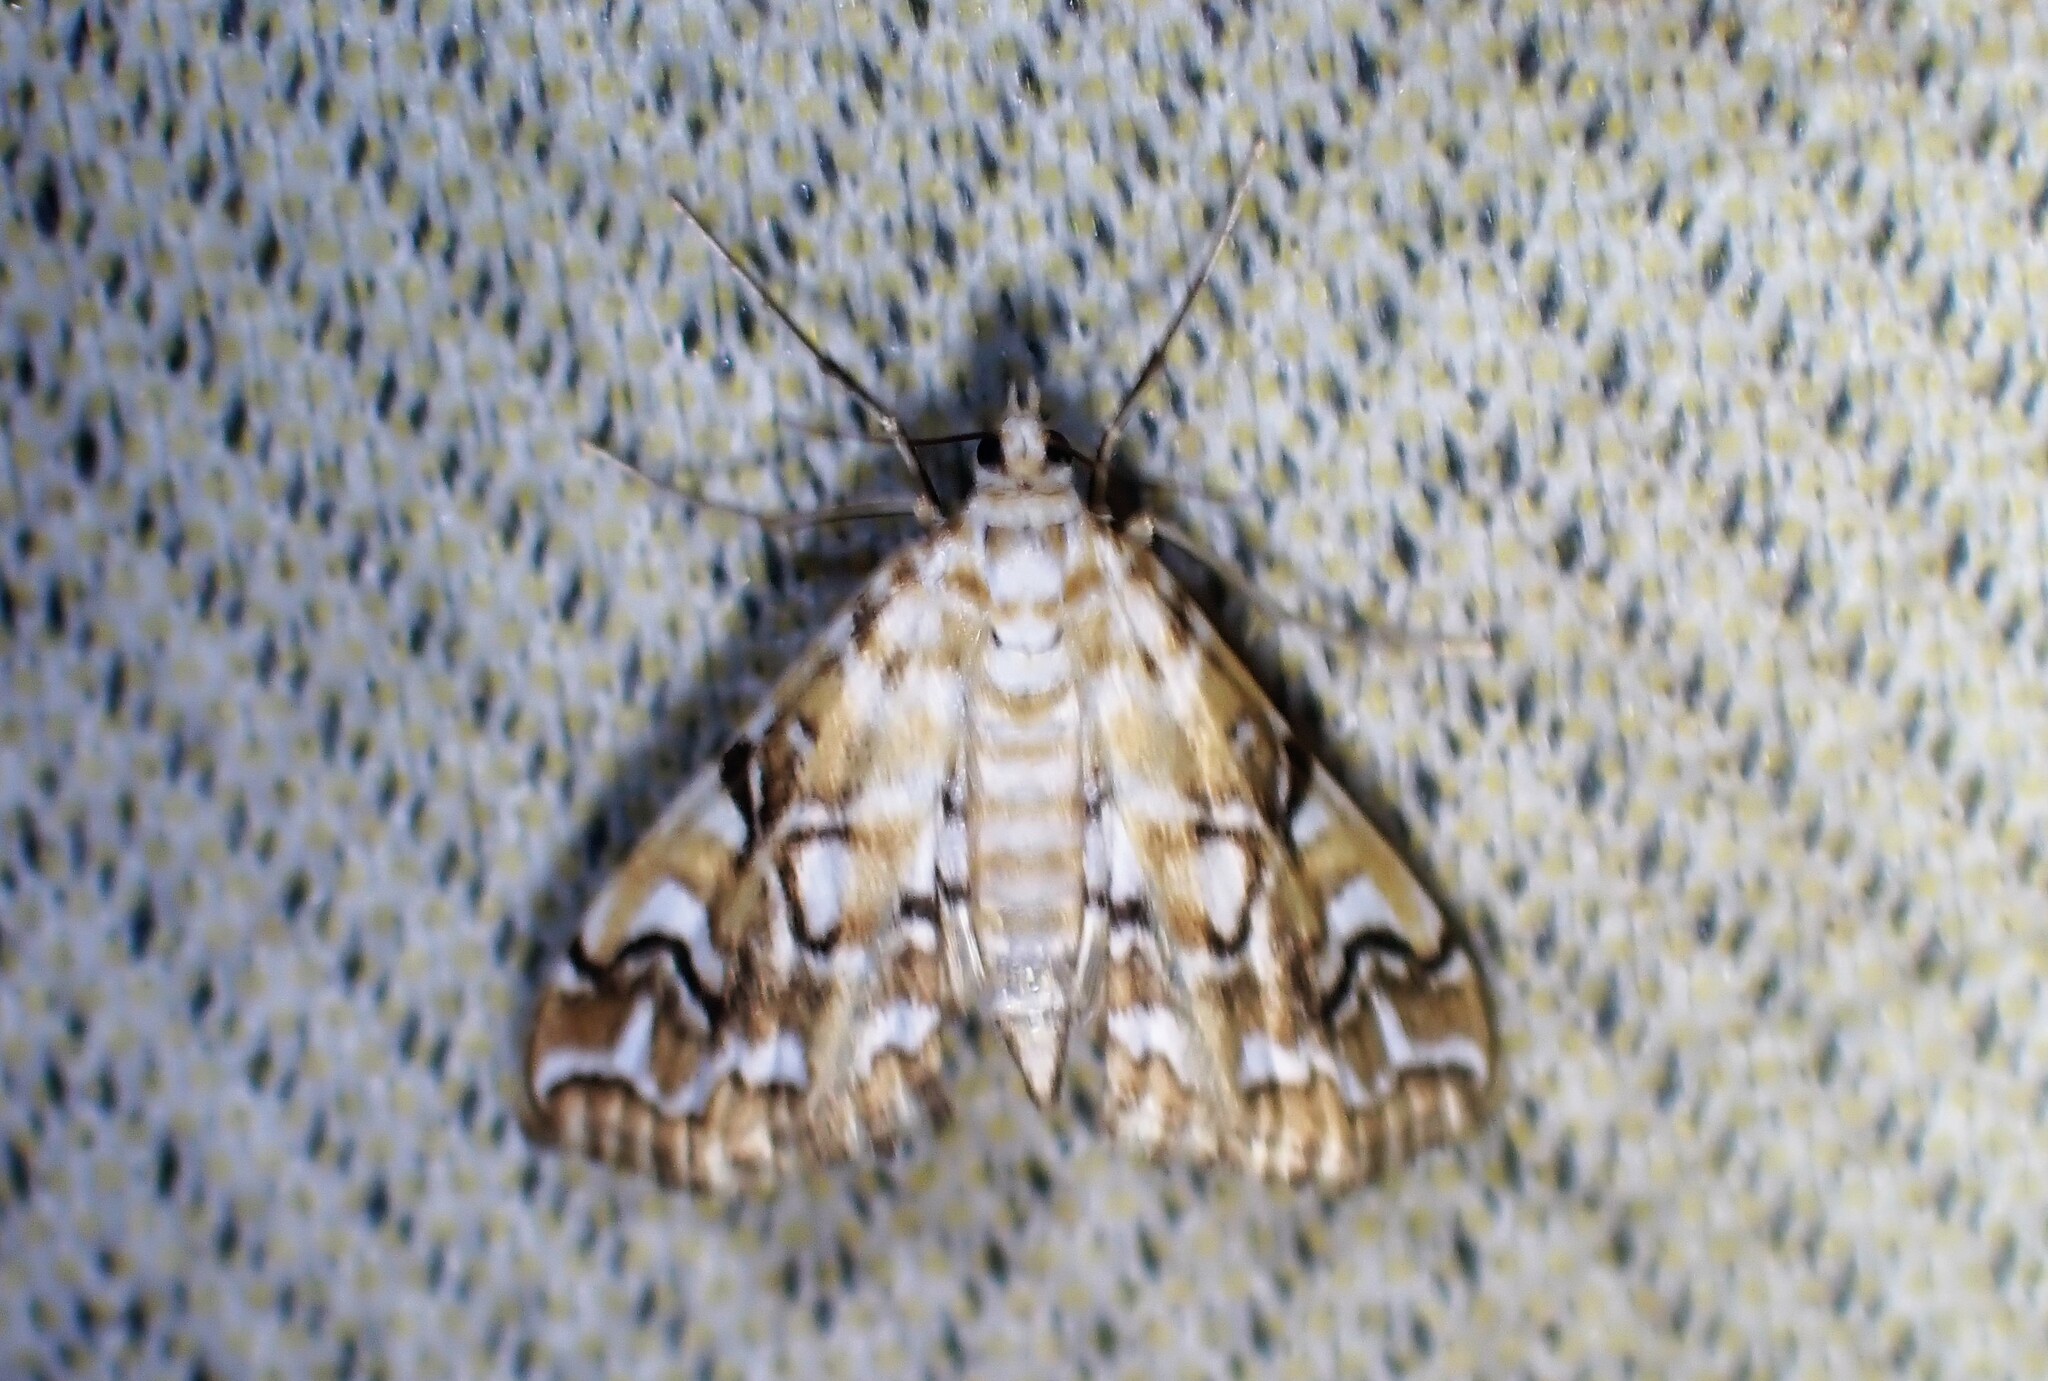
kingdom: Animalia
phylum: Arthropoda
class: Insecta
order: Lepidoptera
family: Crambidae
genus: Elophila
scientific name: Elophila icciusalis
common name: Pondside pyralid moth
